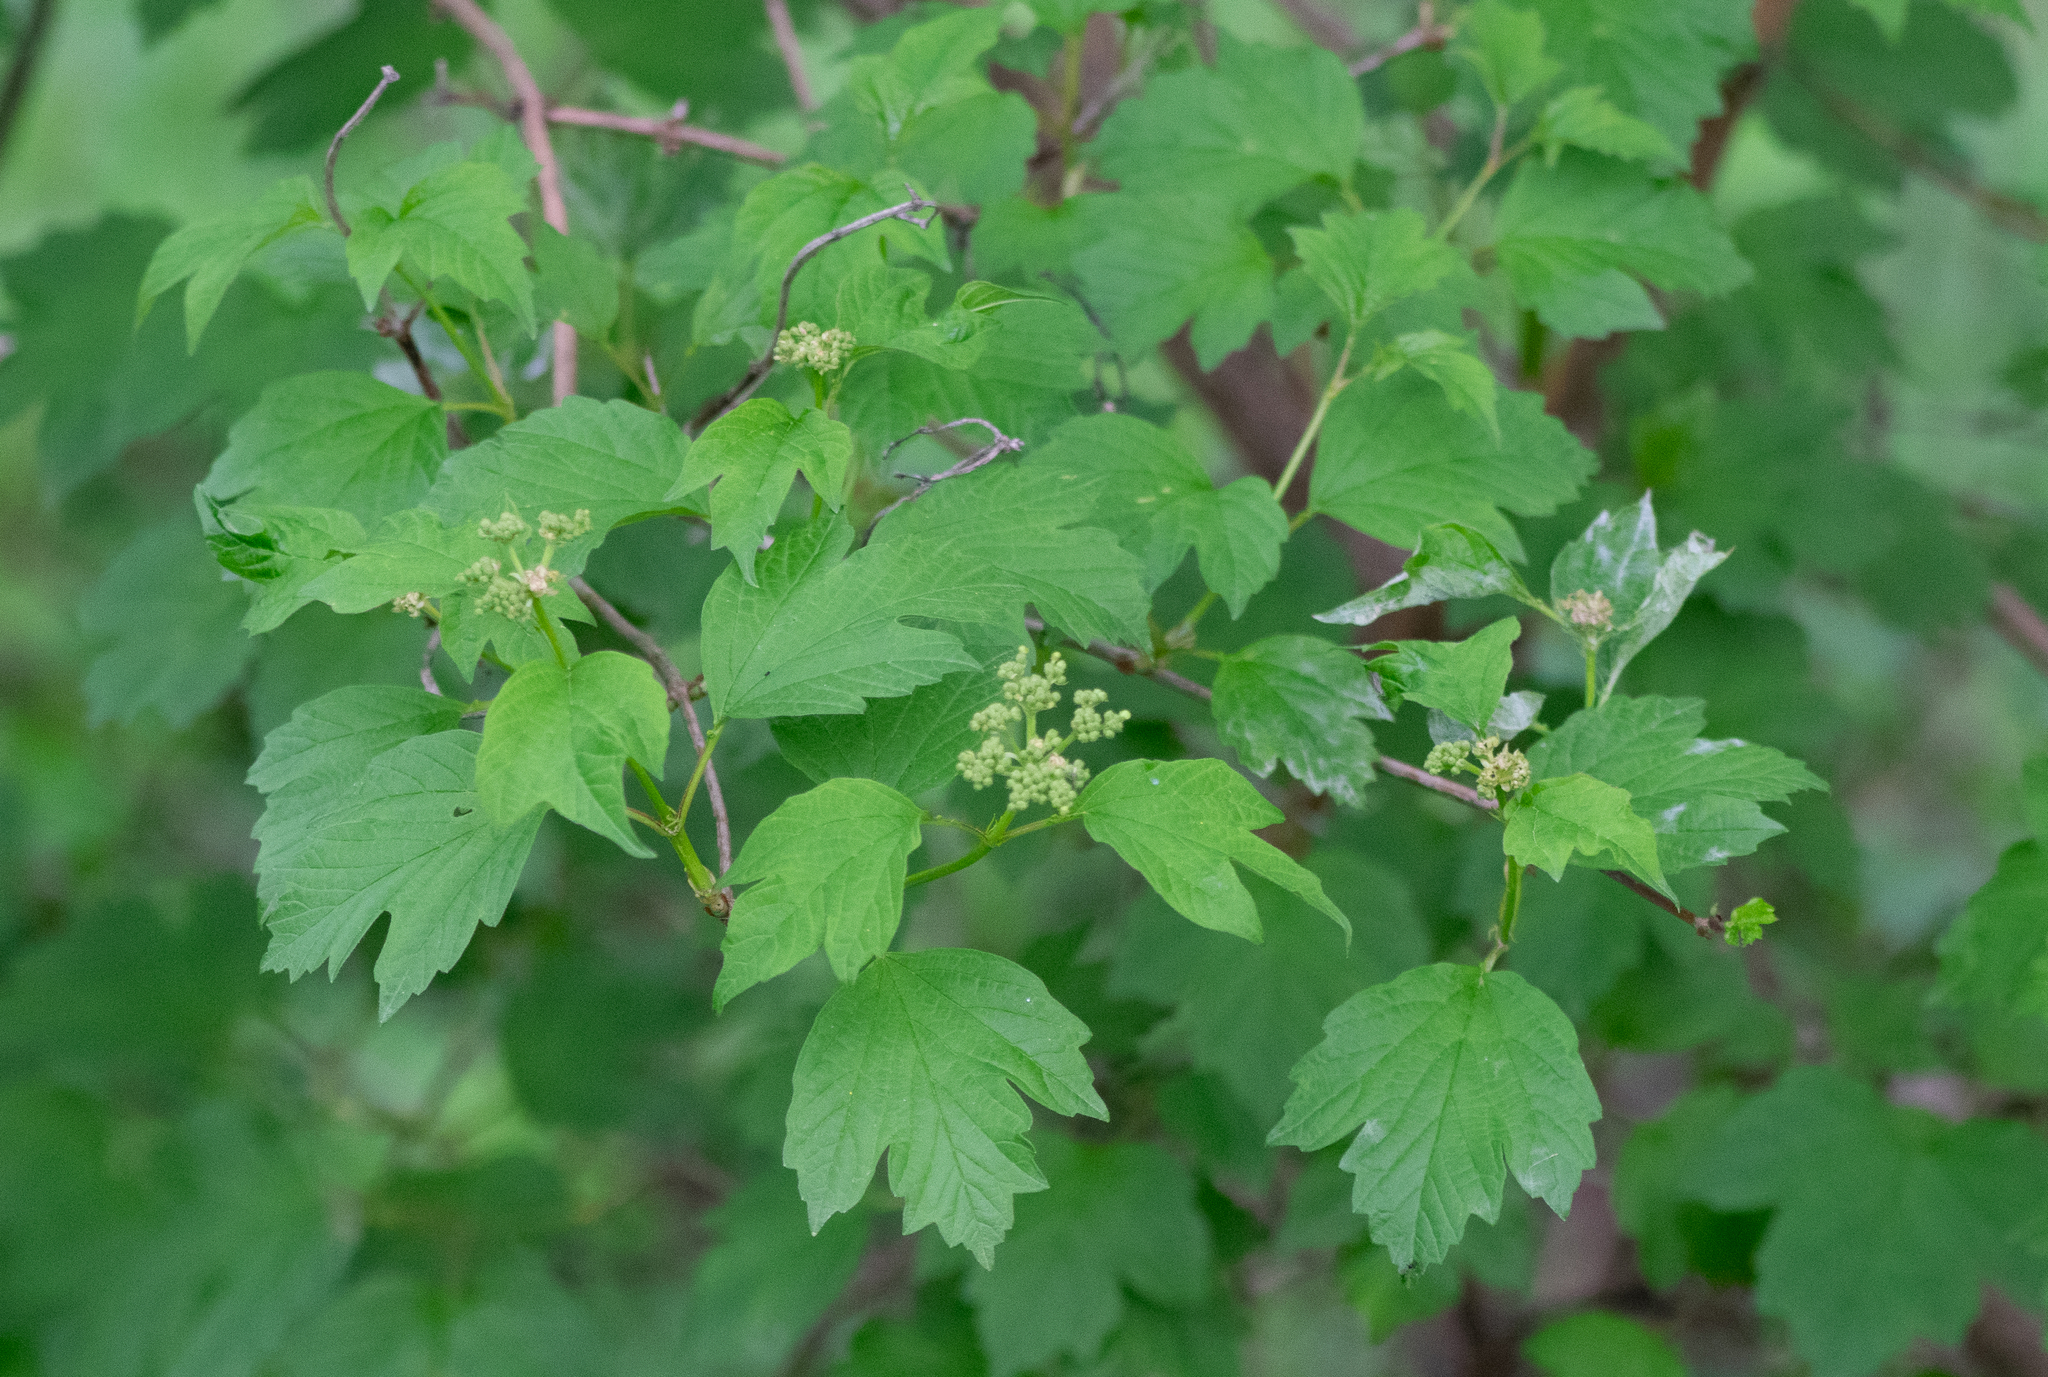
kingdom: Plantae
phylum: Tracheophyta
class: Magnoliopsida
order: Dipsacales
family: Viburnaceae
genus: Viburnum
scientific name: Viburnum opulus
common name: Guelder-rose
